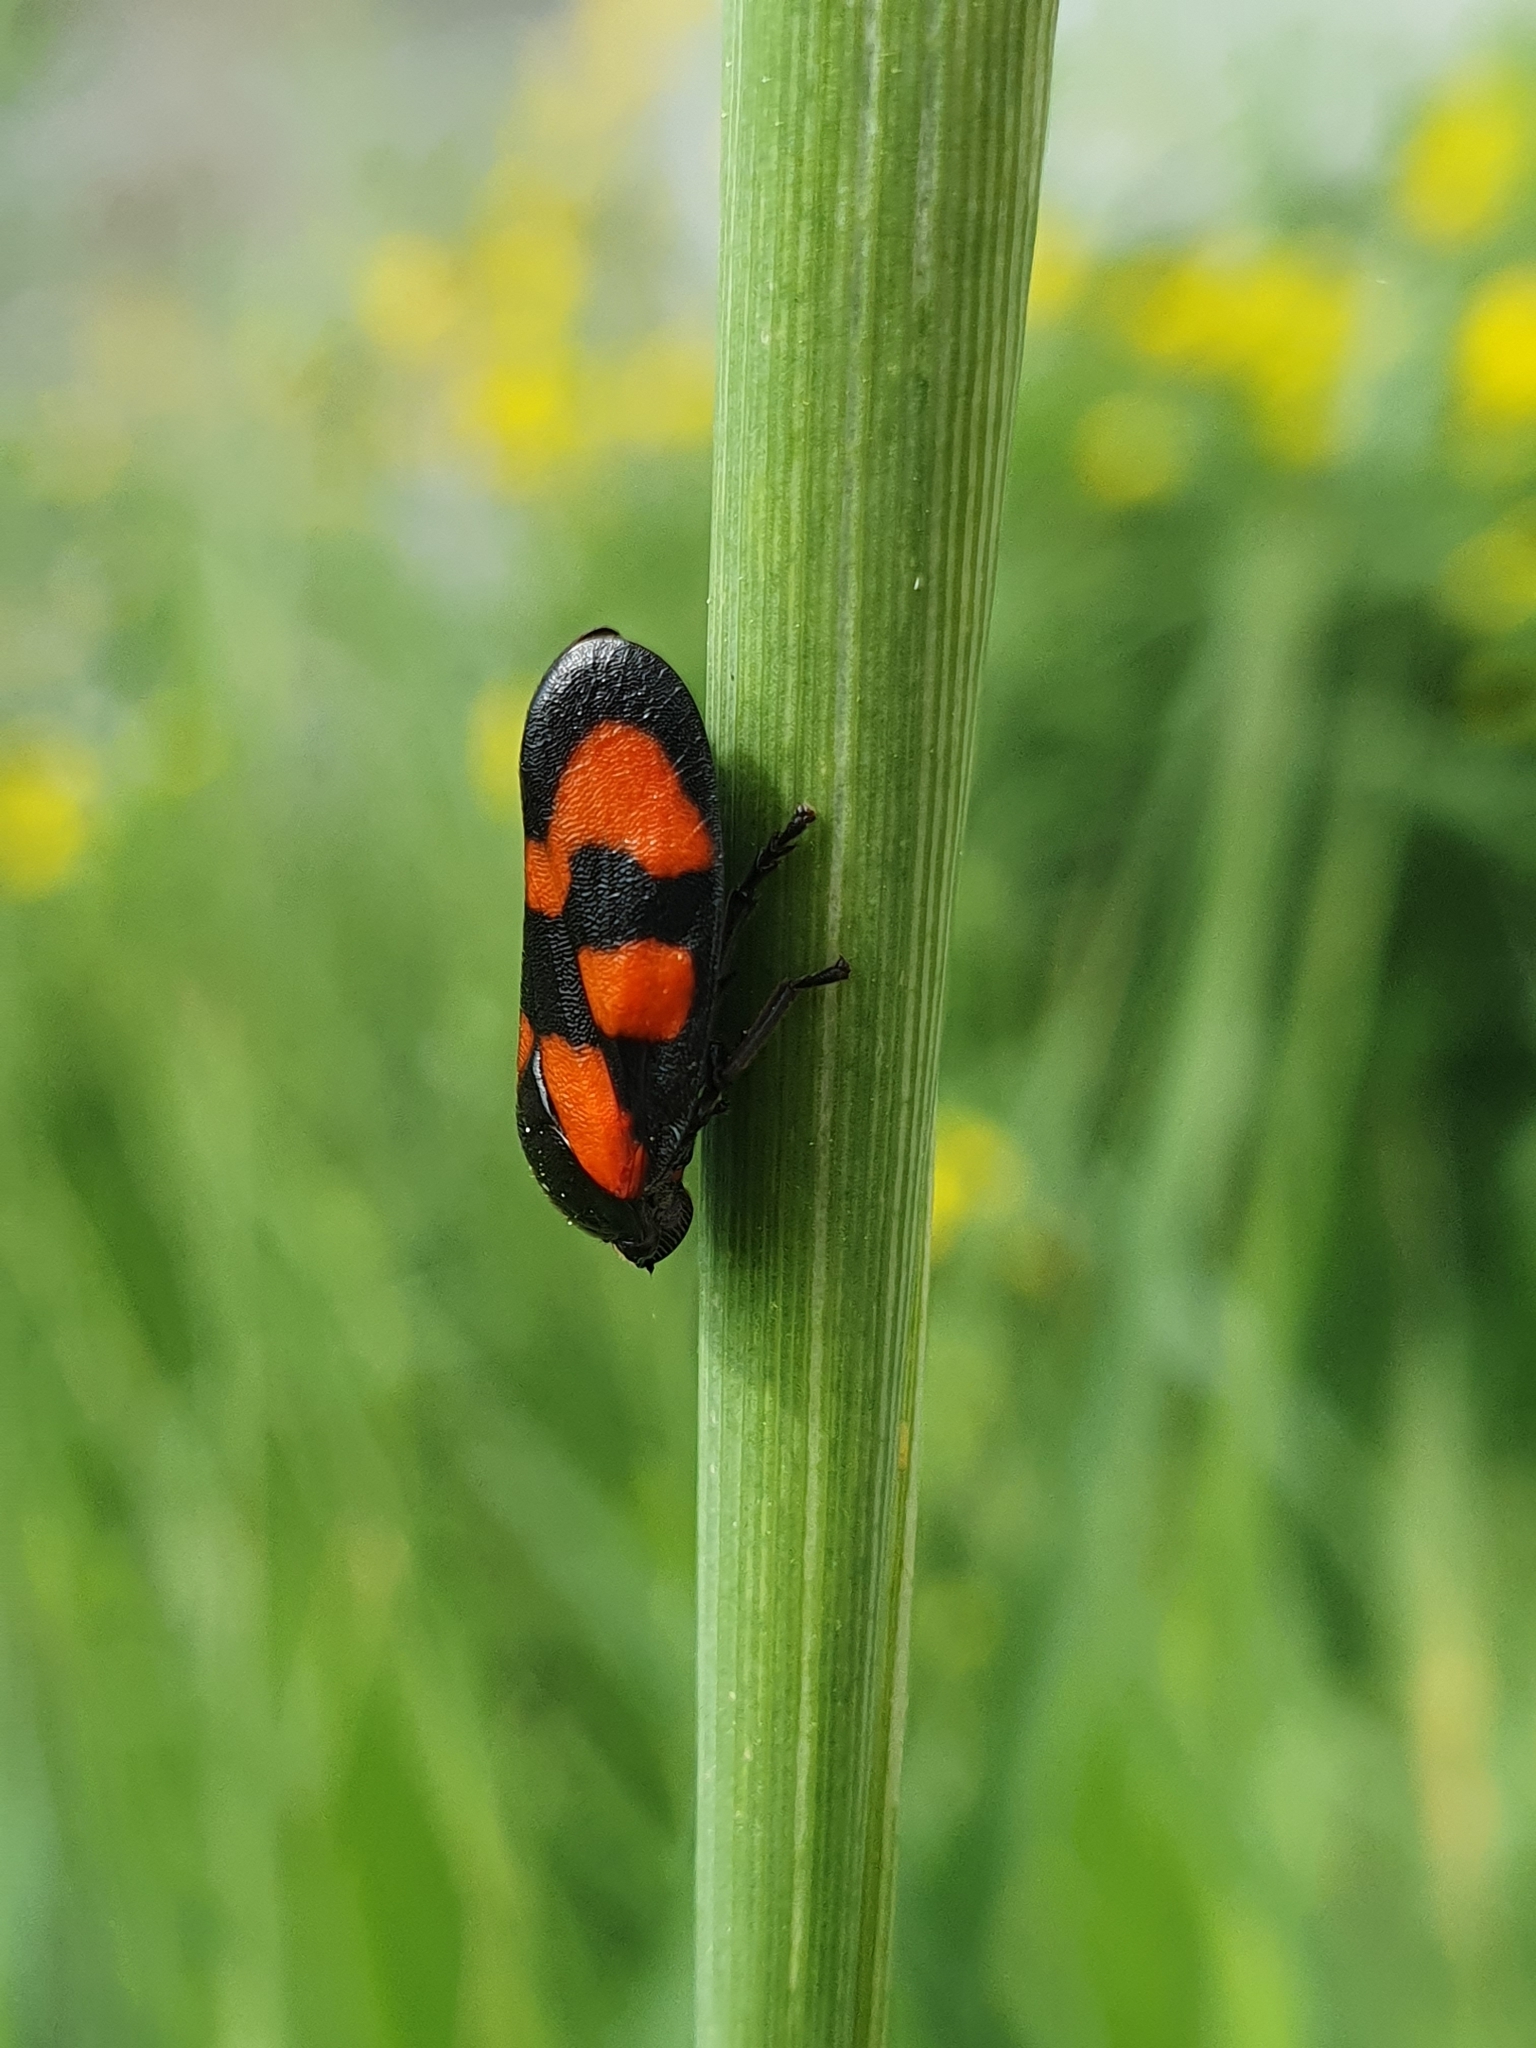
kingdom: Animalia
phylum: Arthropoda
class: Insecta
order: Hemiptera
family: Cercopidae
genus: Cercopis
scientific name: Cercopis vulnerata
